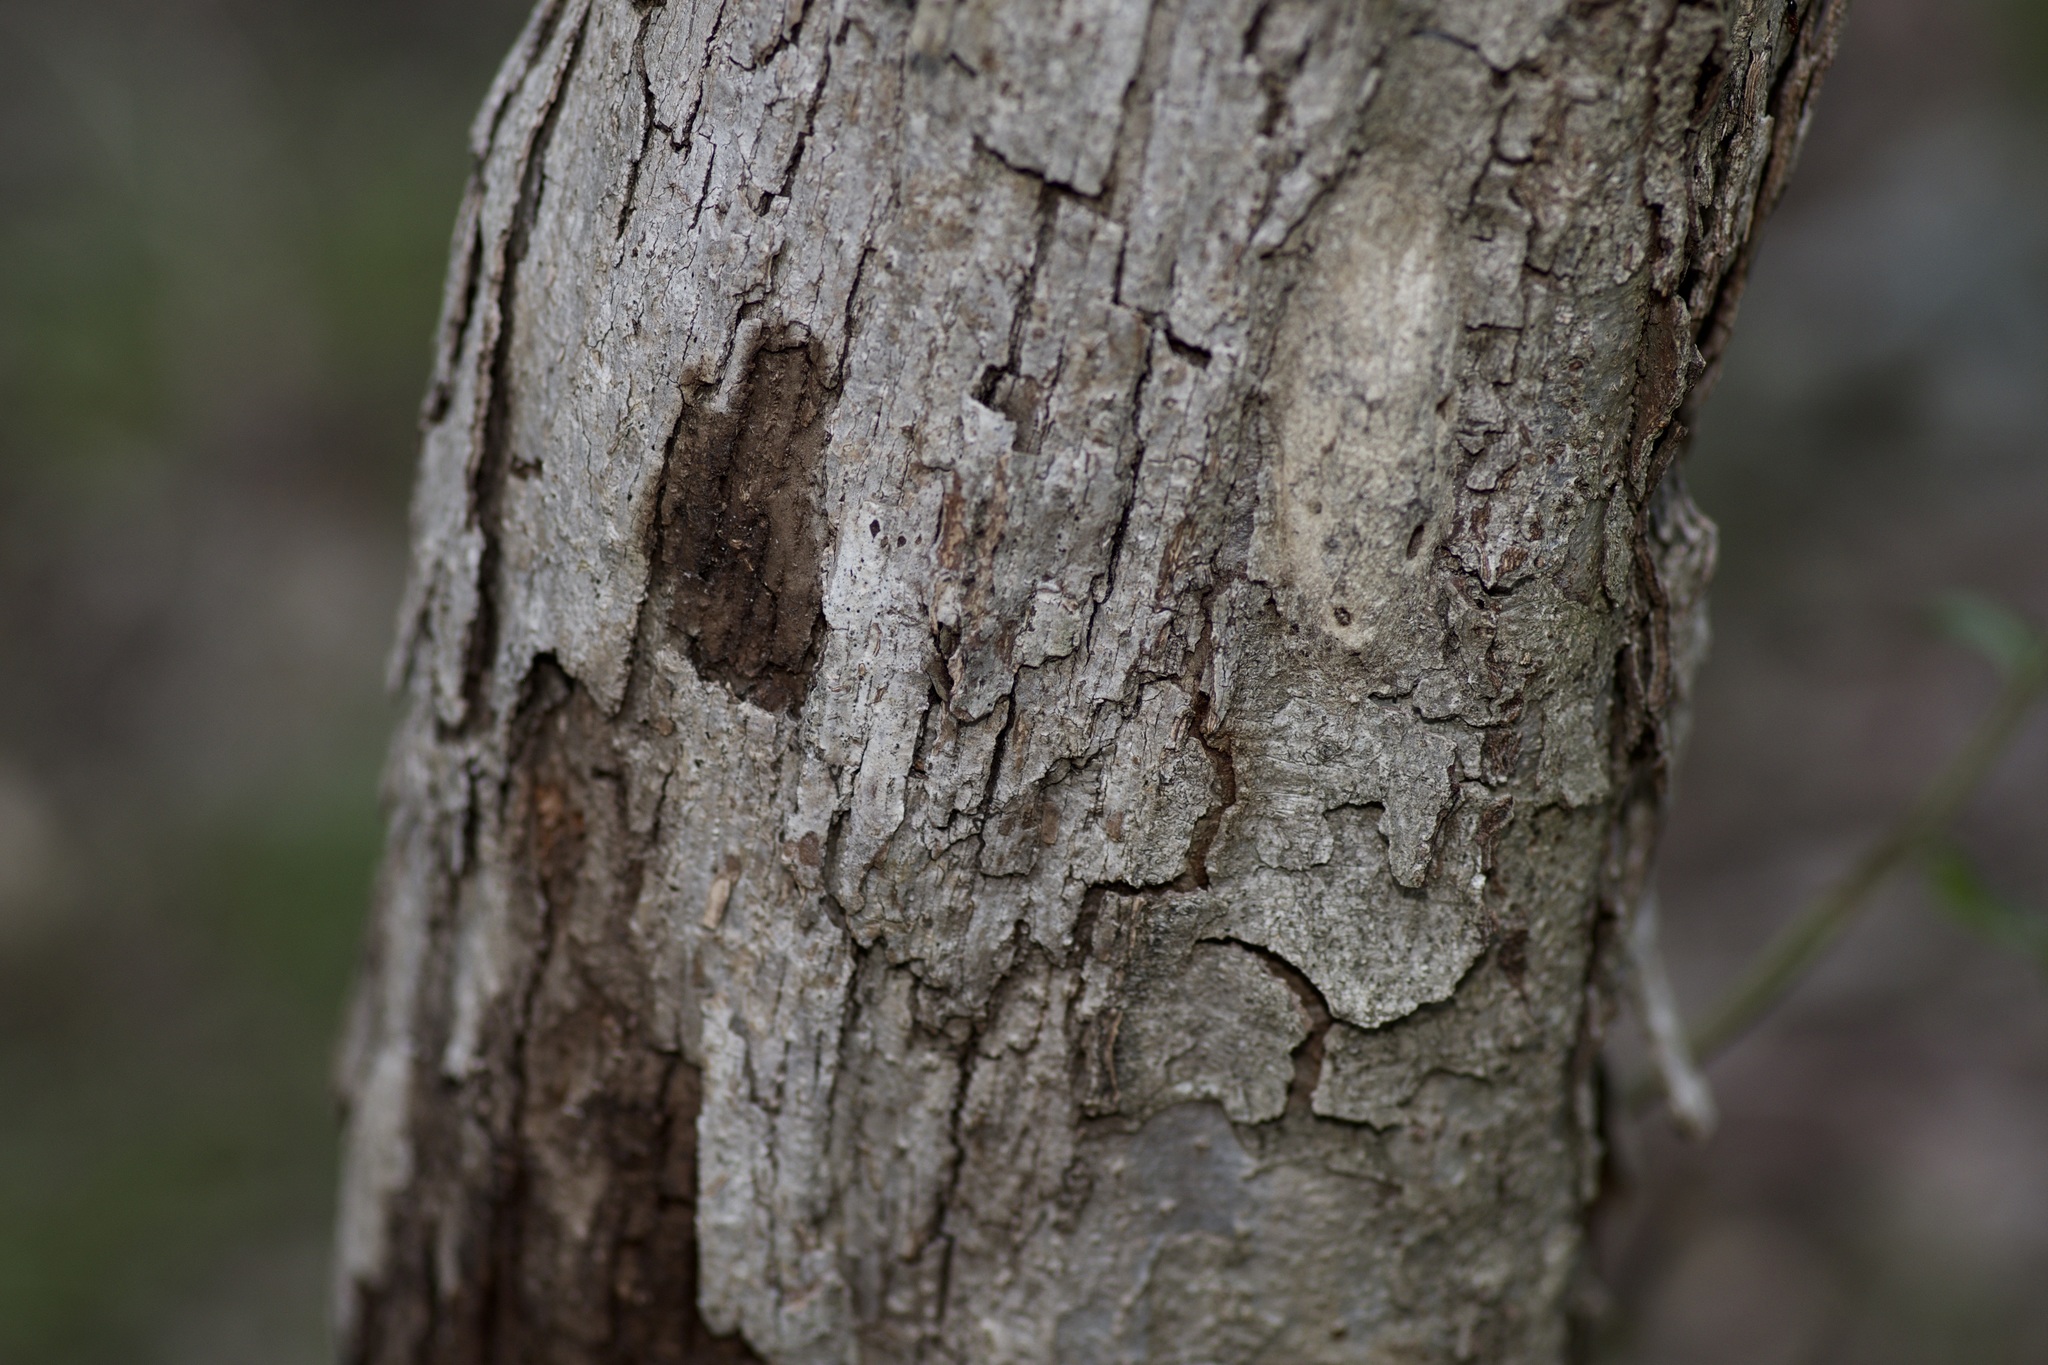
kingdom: Plantae
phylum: Tracheophyta
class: Magnoliopsida
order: Fagales
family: Fagaceae
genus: Quercus
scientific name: Quercus sinuata
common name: Durand oak
